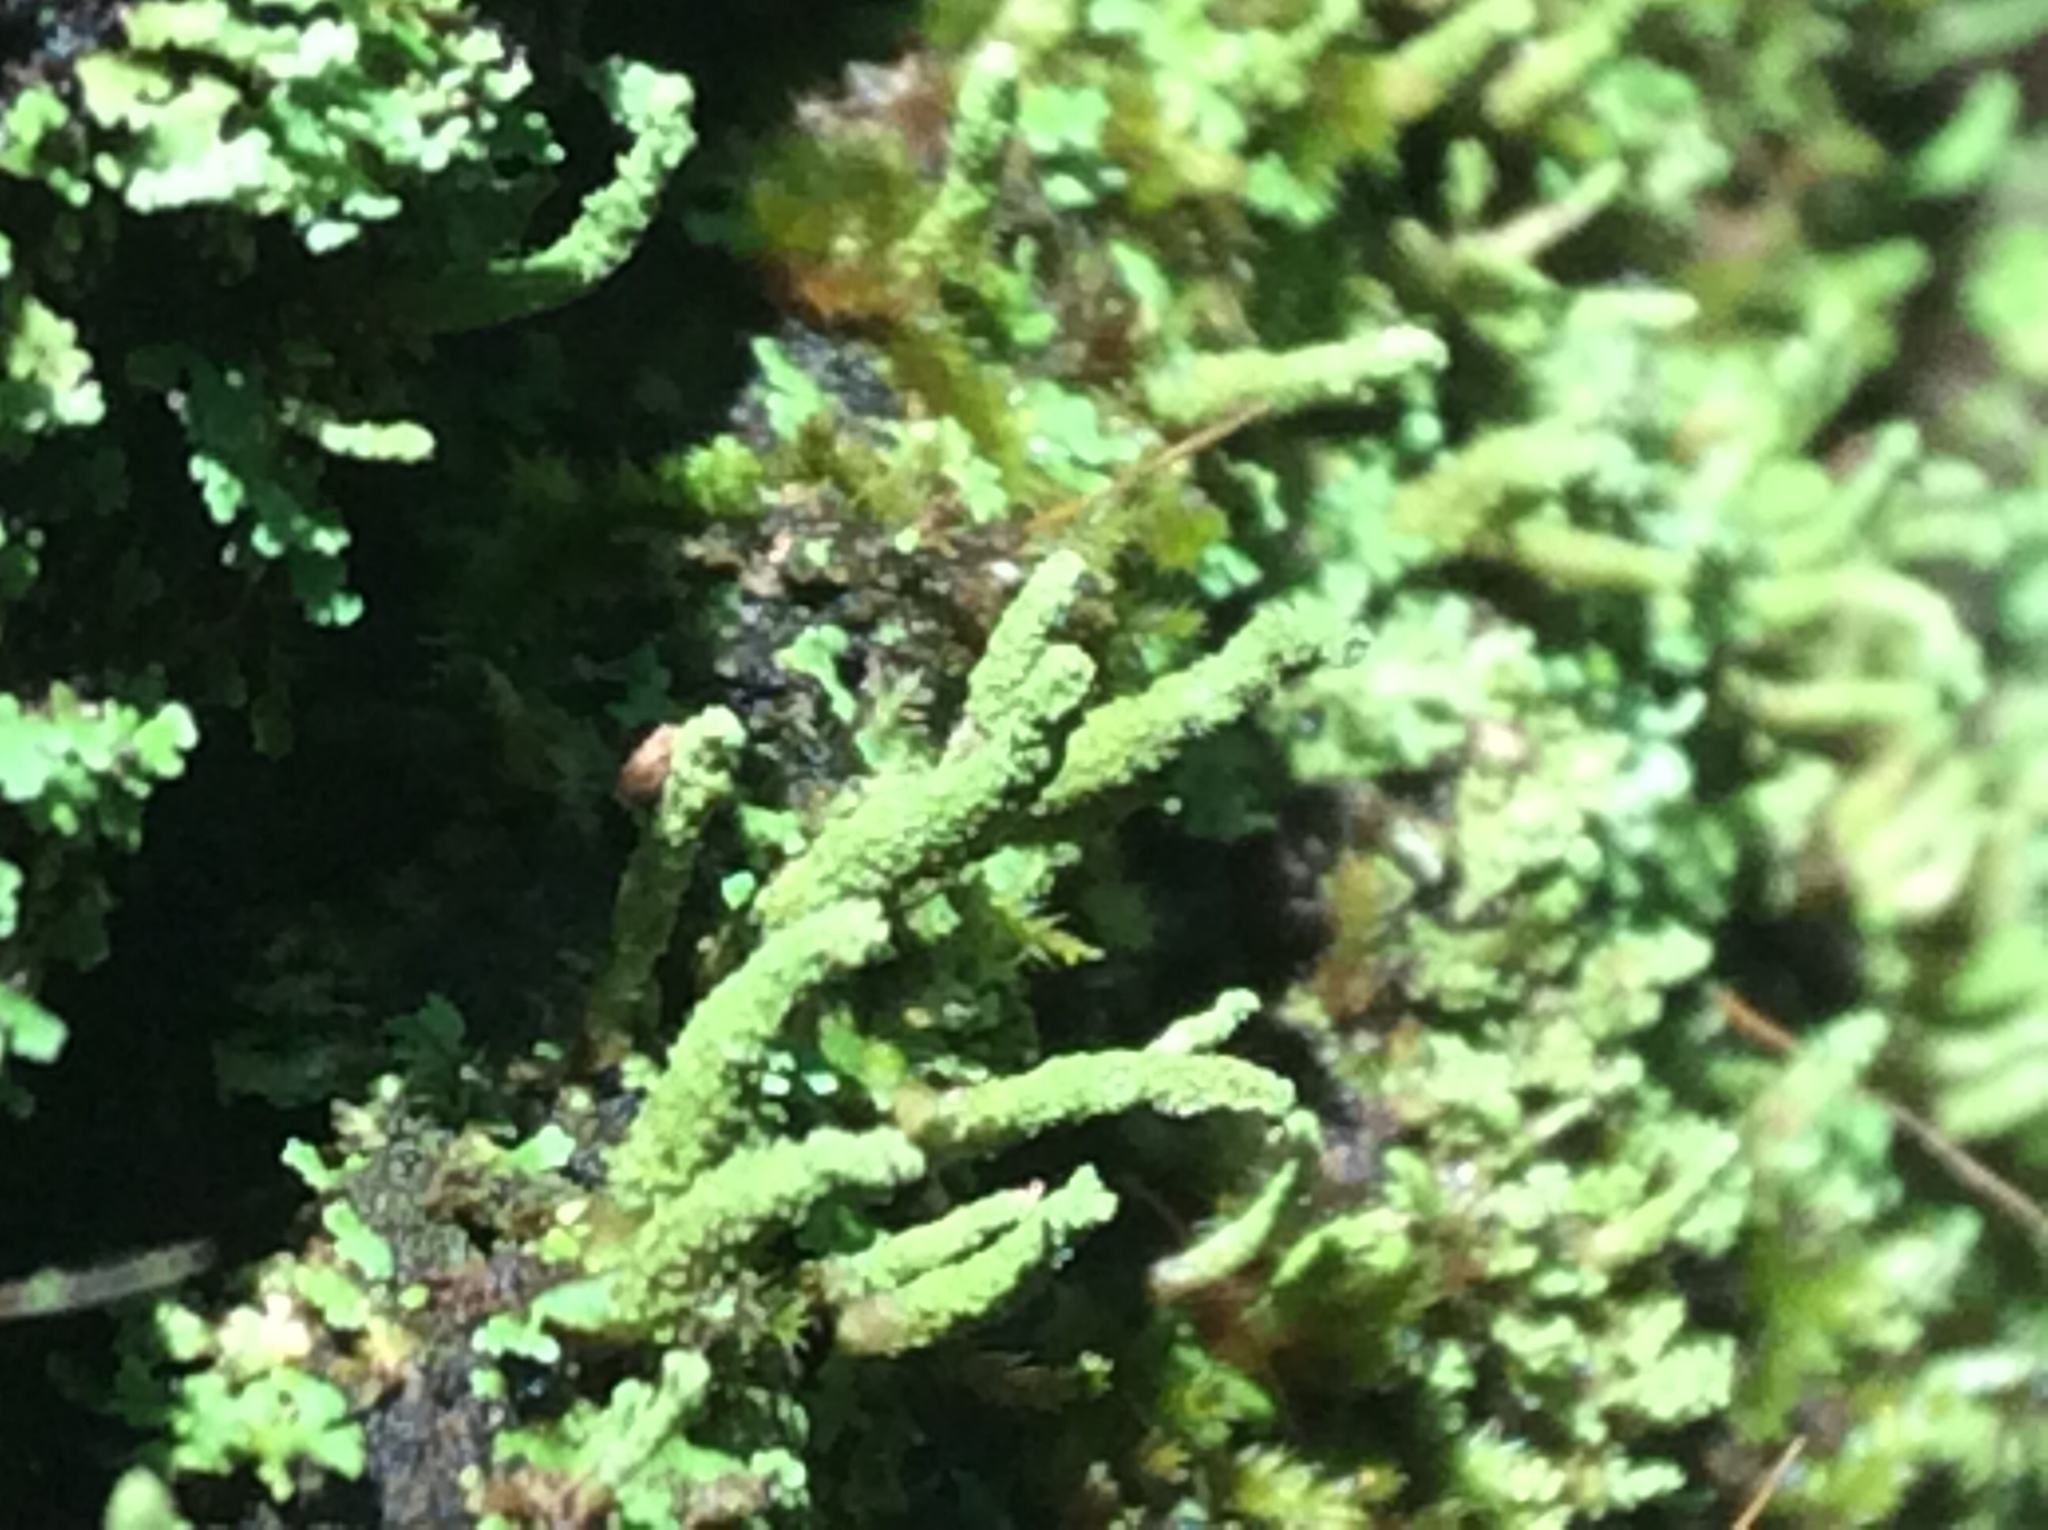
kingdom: Fungi
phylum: Ascomycota
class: Lecanoromycetes
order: Lecanorales
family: Cladoniaceae
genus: Cladonia
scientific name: Cladonia coniocraea
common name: Common powderhorn
